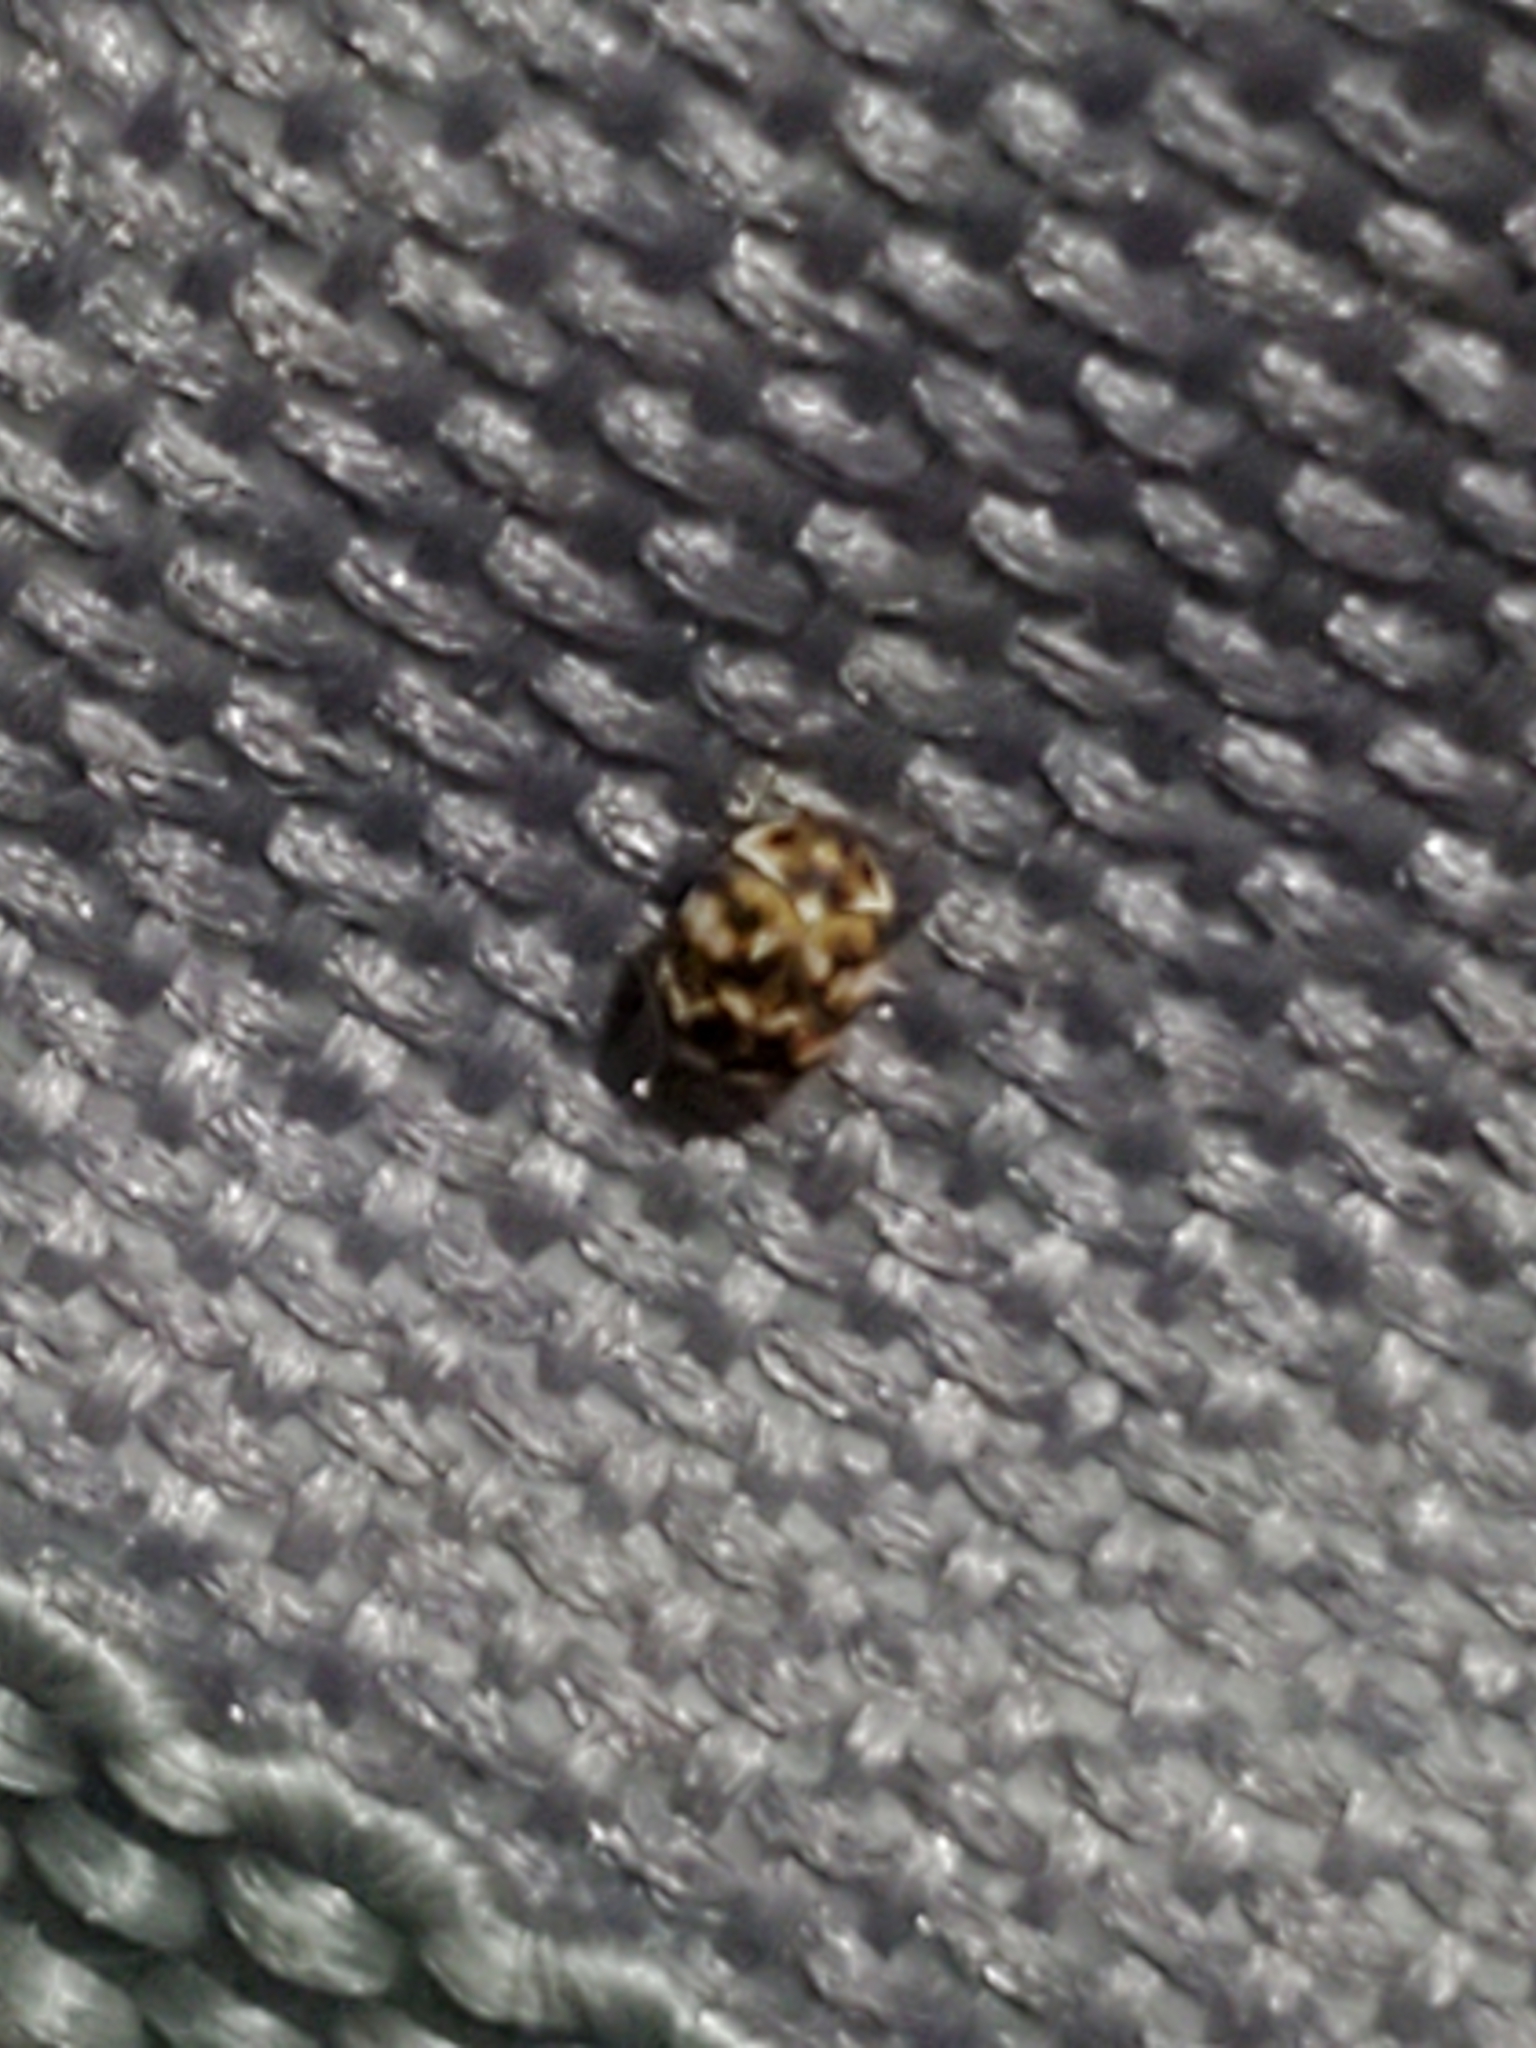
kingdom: Animalia
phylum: Arthropoda
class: Insecta
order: Coleoptera
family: Dermestidae
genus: Anthrenus
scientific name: Anthrenus verbasci
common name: Varied carpet beetle
